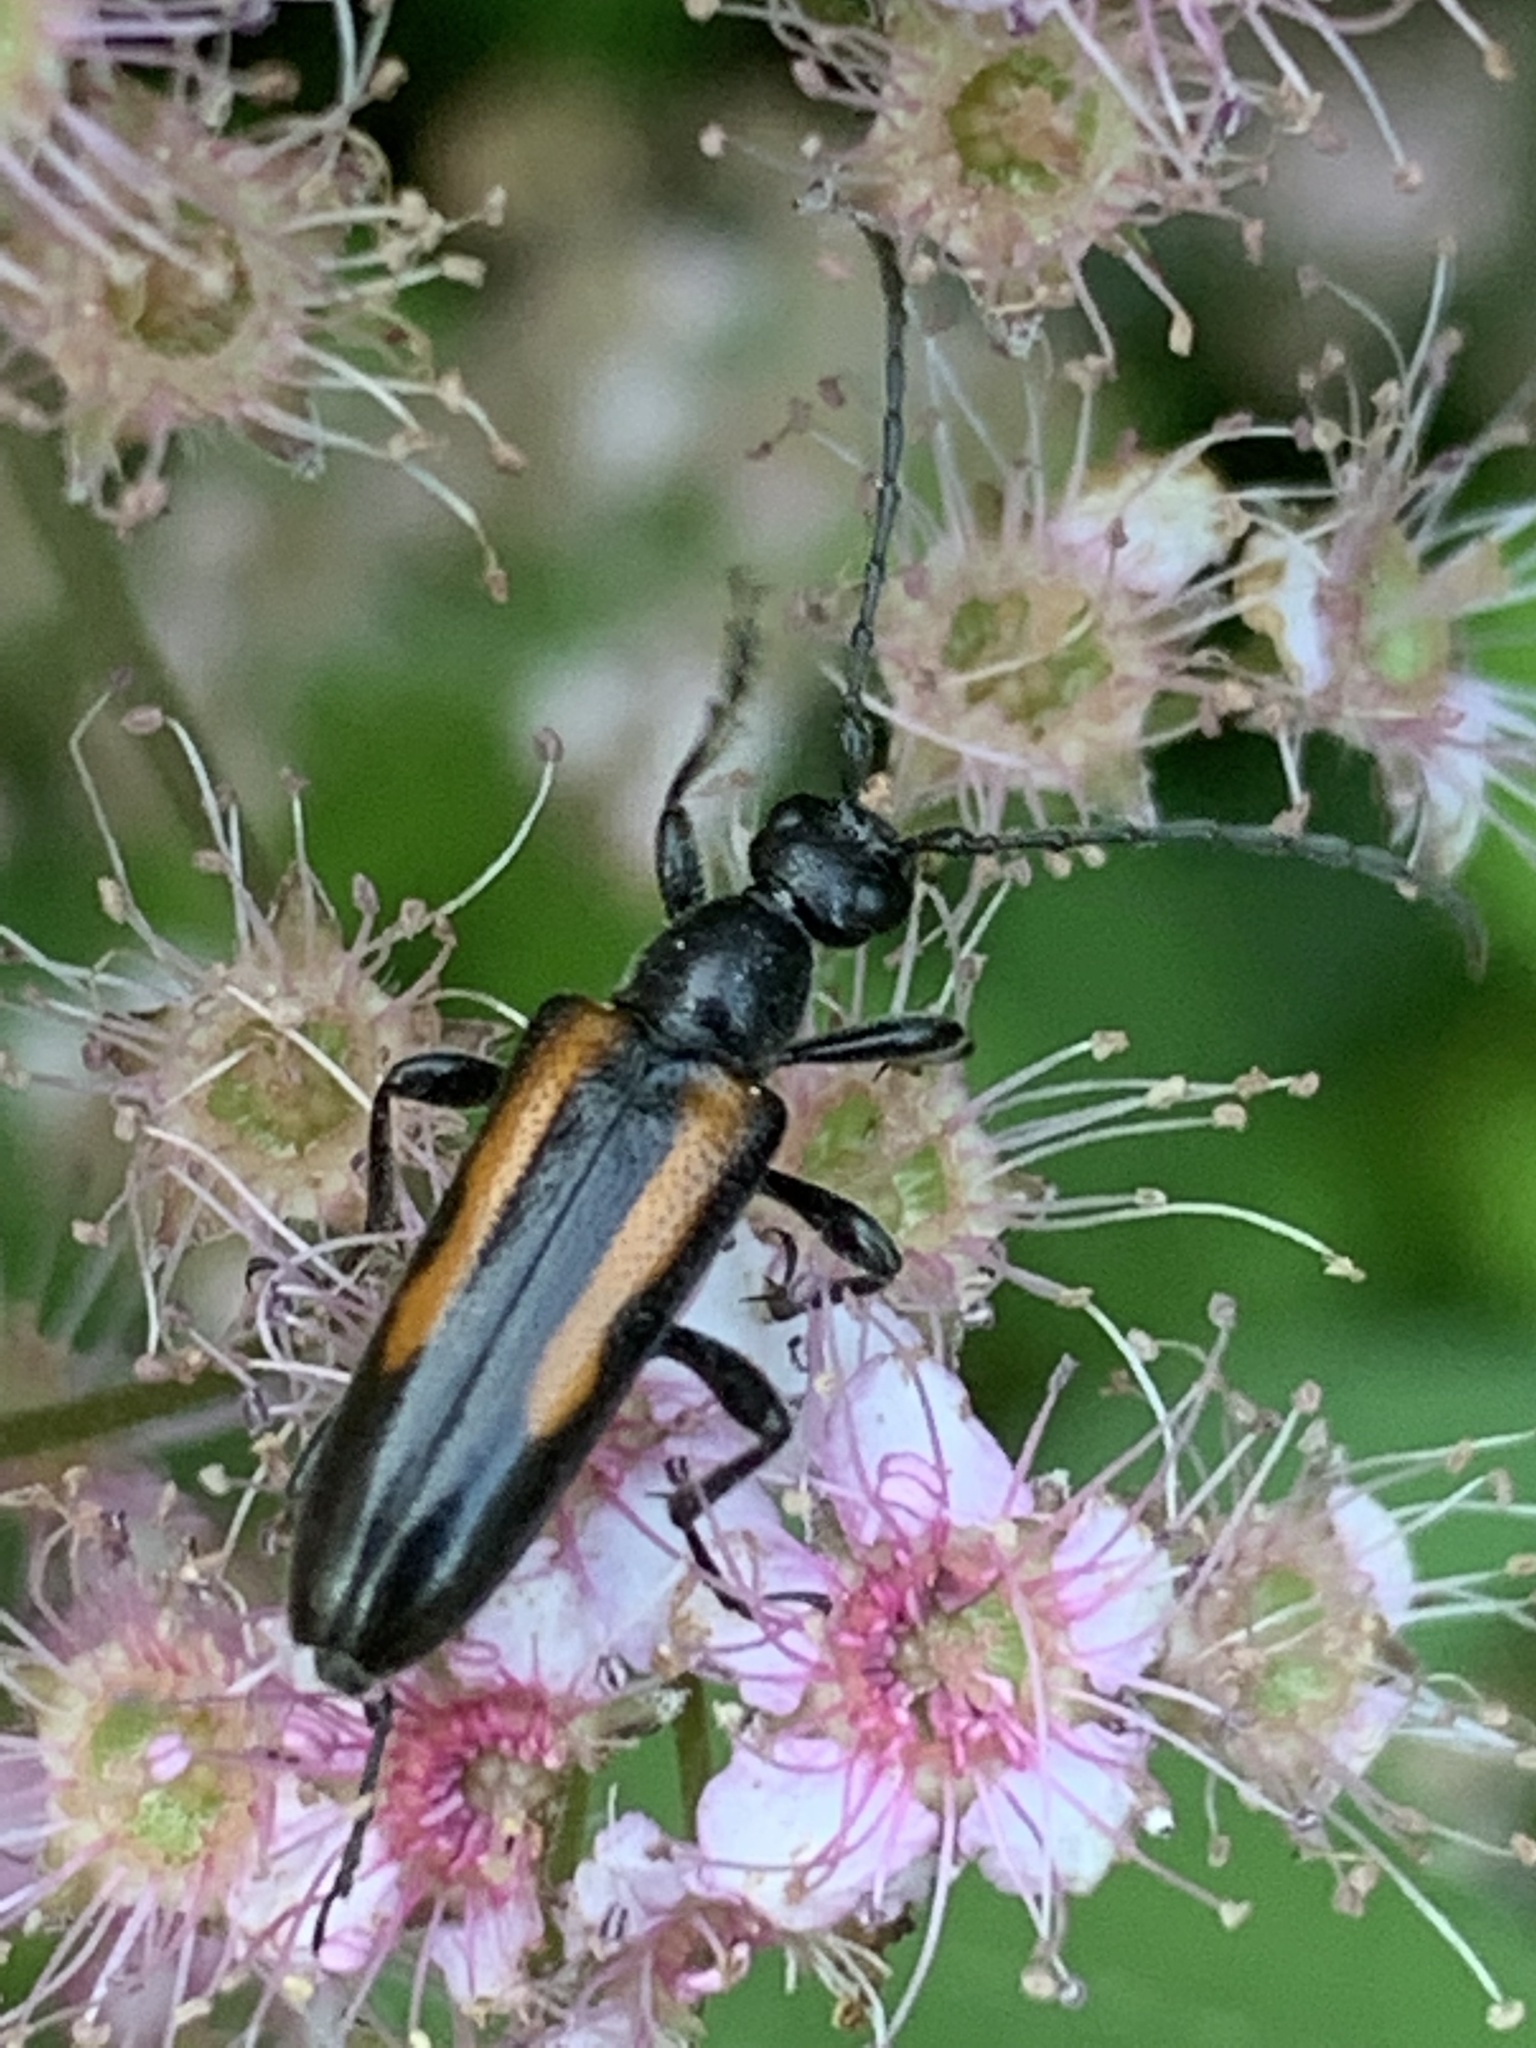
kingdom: Animalia
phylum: Arthropoda
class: Insecta
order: Coleoptera
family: Cerambycidae
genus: Strangalepta
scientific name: Strangalepta abbreviata
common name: Strangalepta flower longhorn beetle
